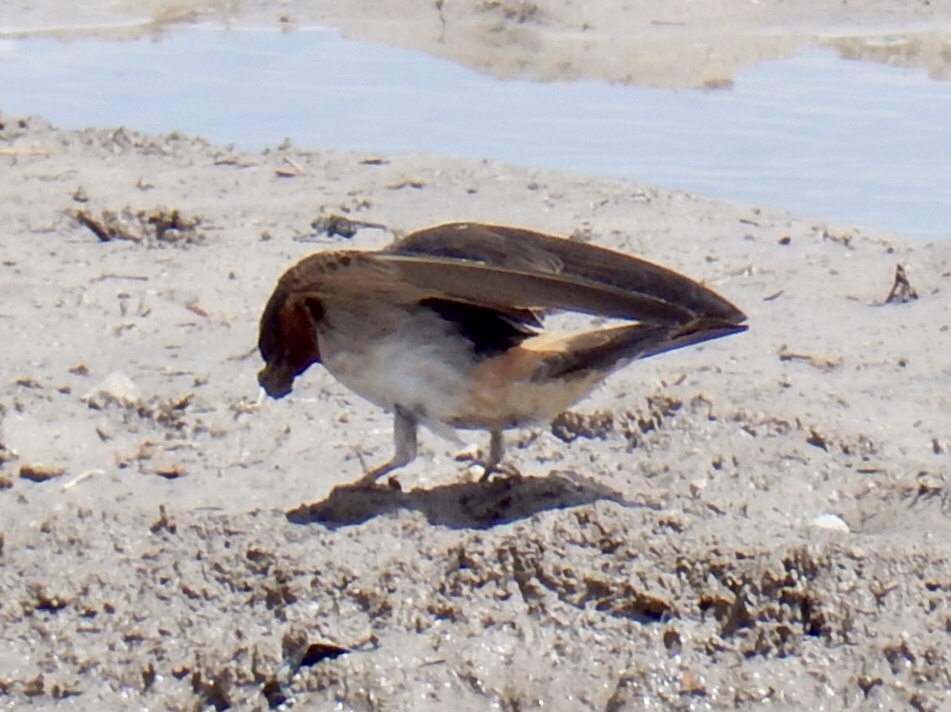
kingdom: Animalia
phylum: Chordata
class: Aves
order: Passeriformes
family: Hirundinidae
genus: Petrochelidon
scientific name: Petrochelidon pyrrhonota
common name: American cliff swallow
